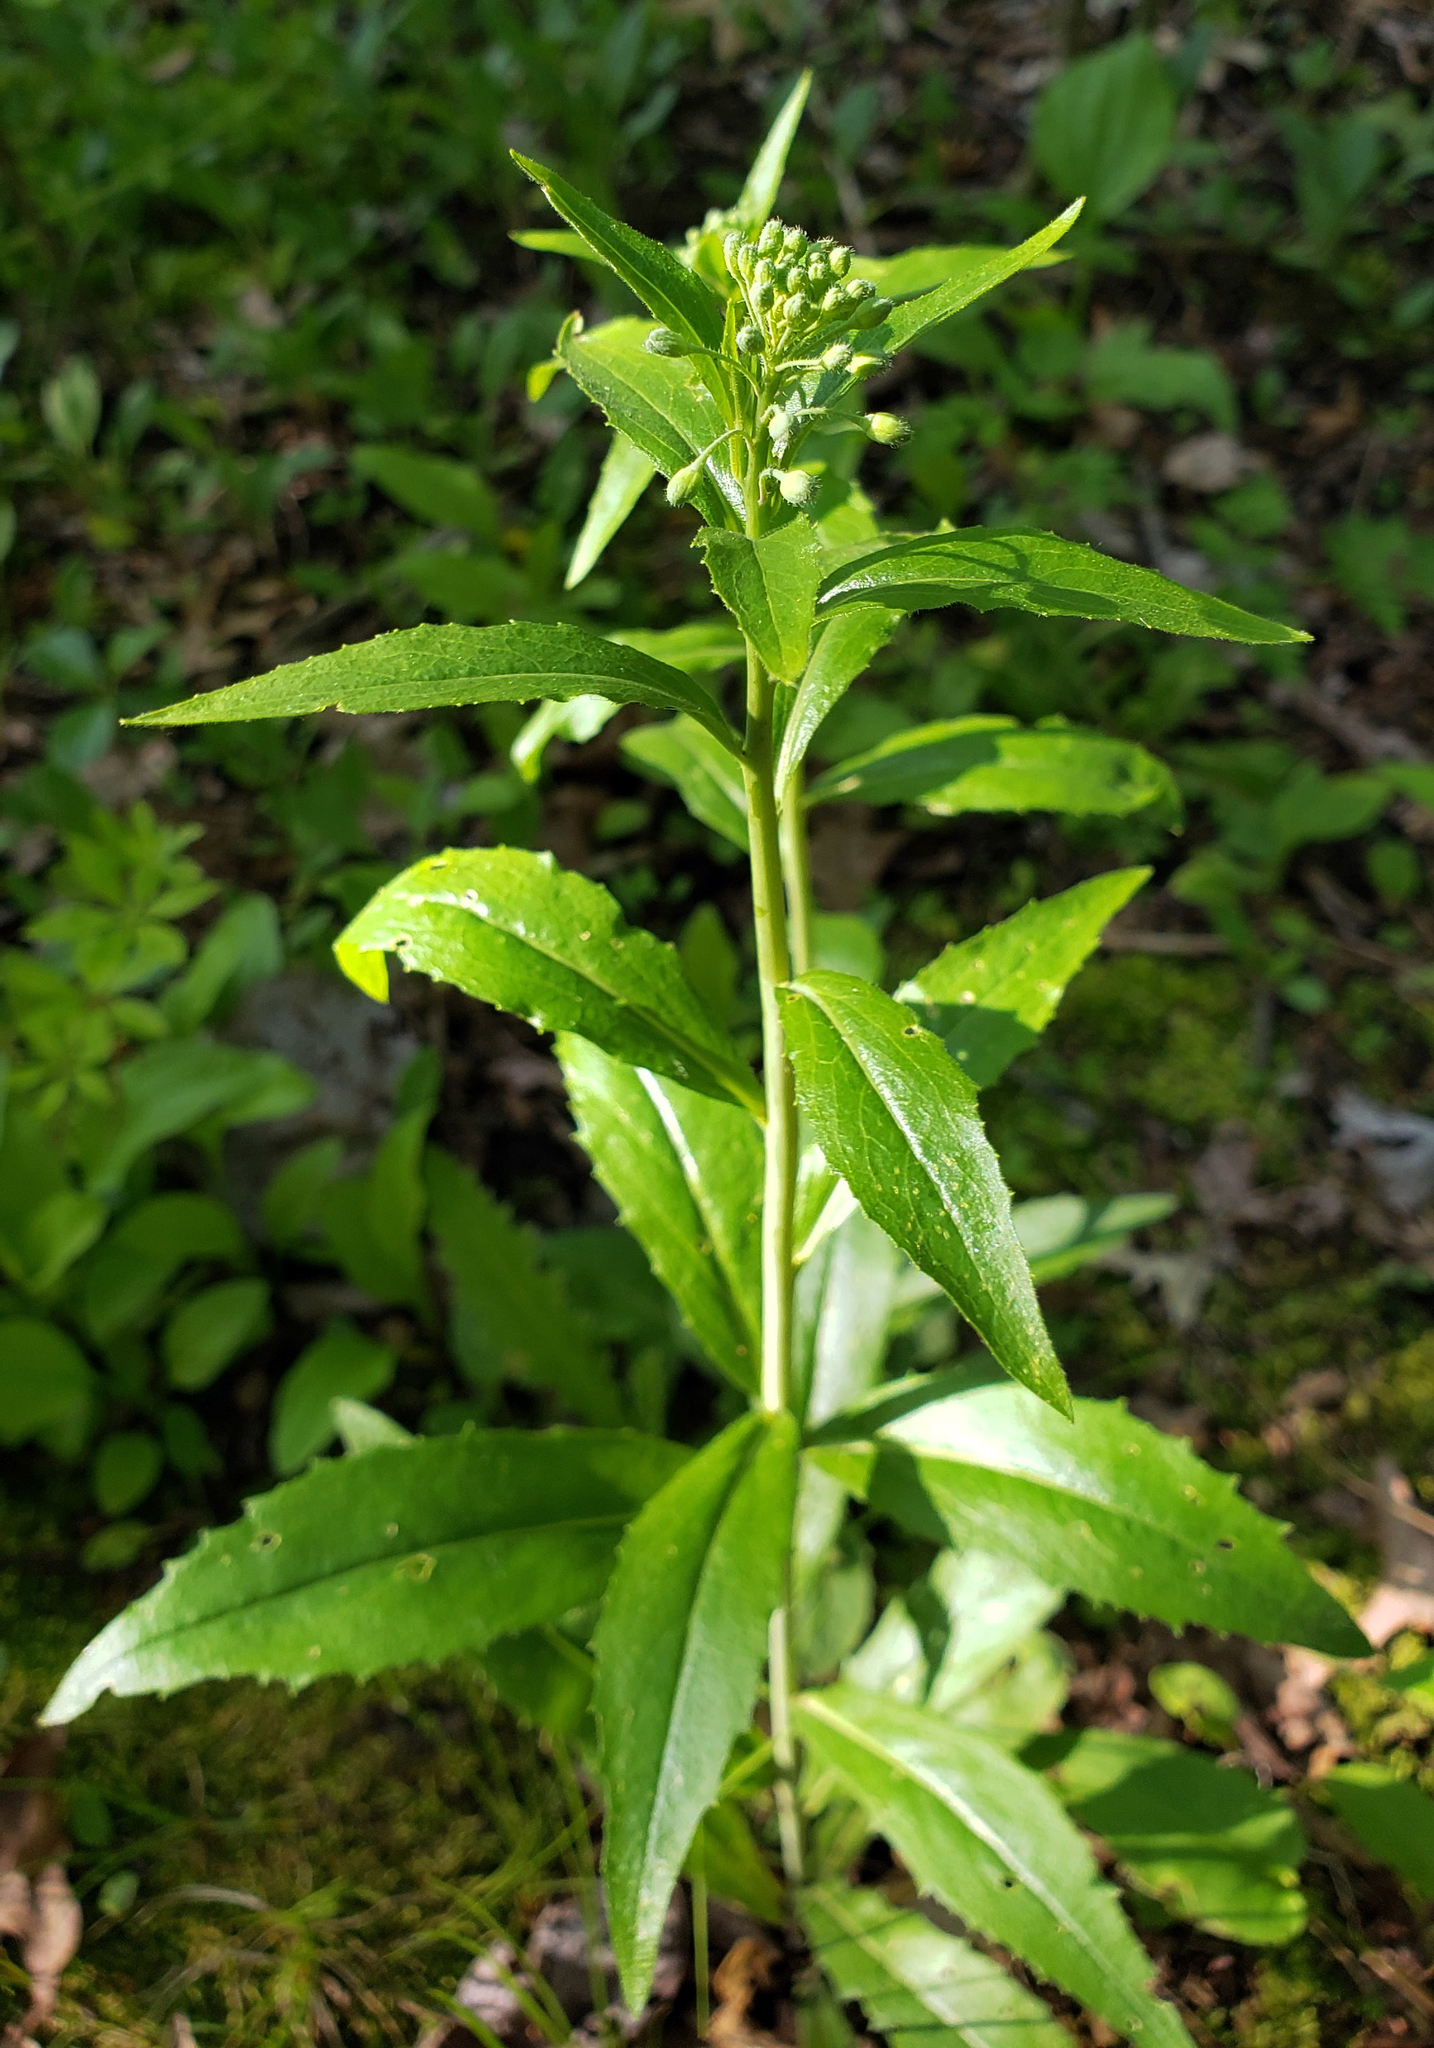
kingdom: Plantae
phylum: Tracheophyta
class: Magnoliopsida
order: Brassicales
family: Brassicaceae
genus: Hesperis
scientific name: Hesperis matronalis
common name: Dame's-violet
